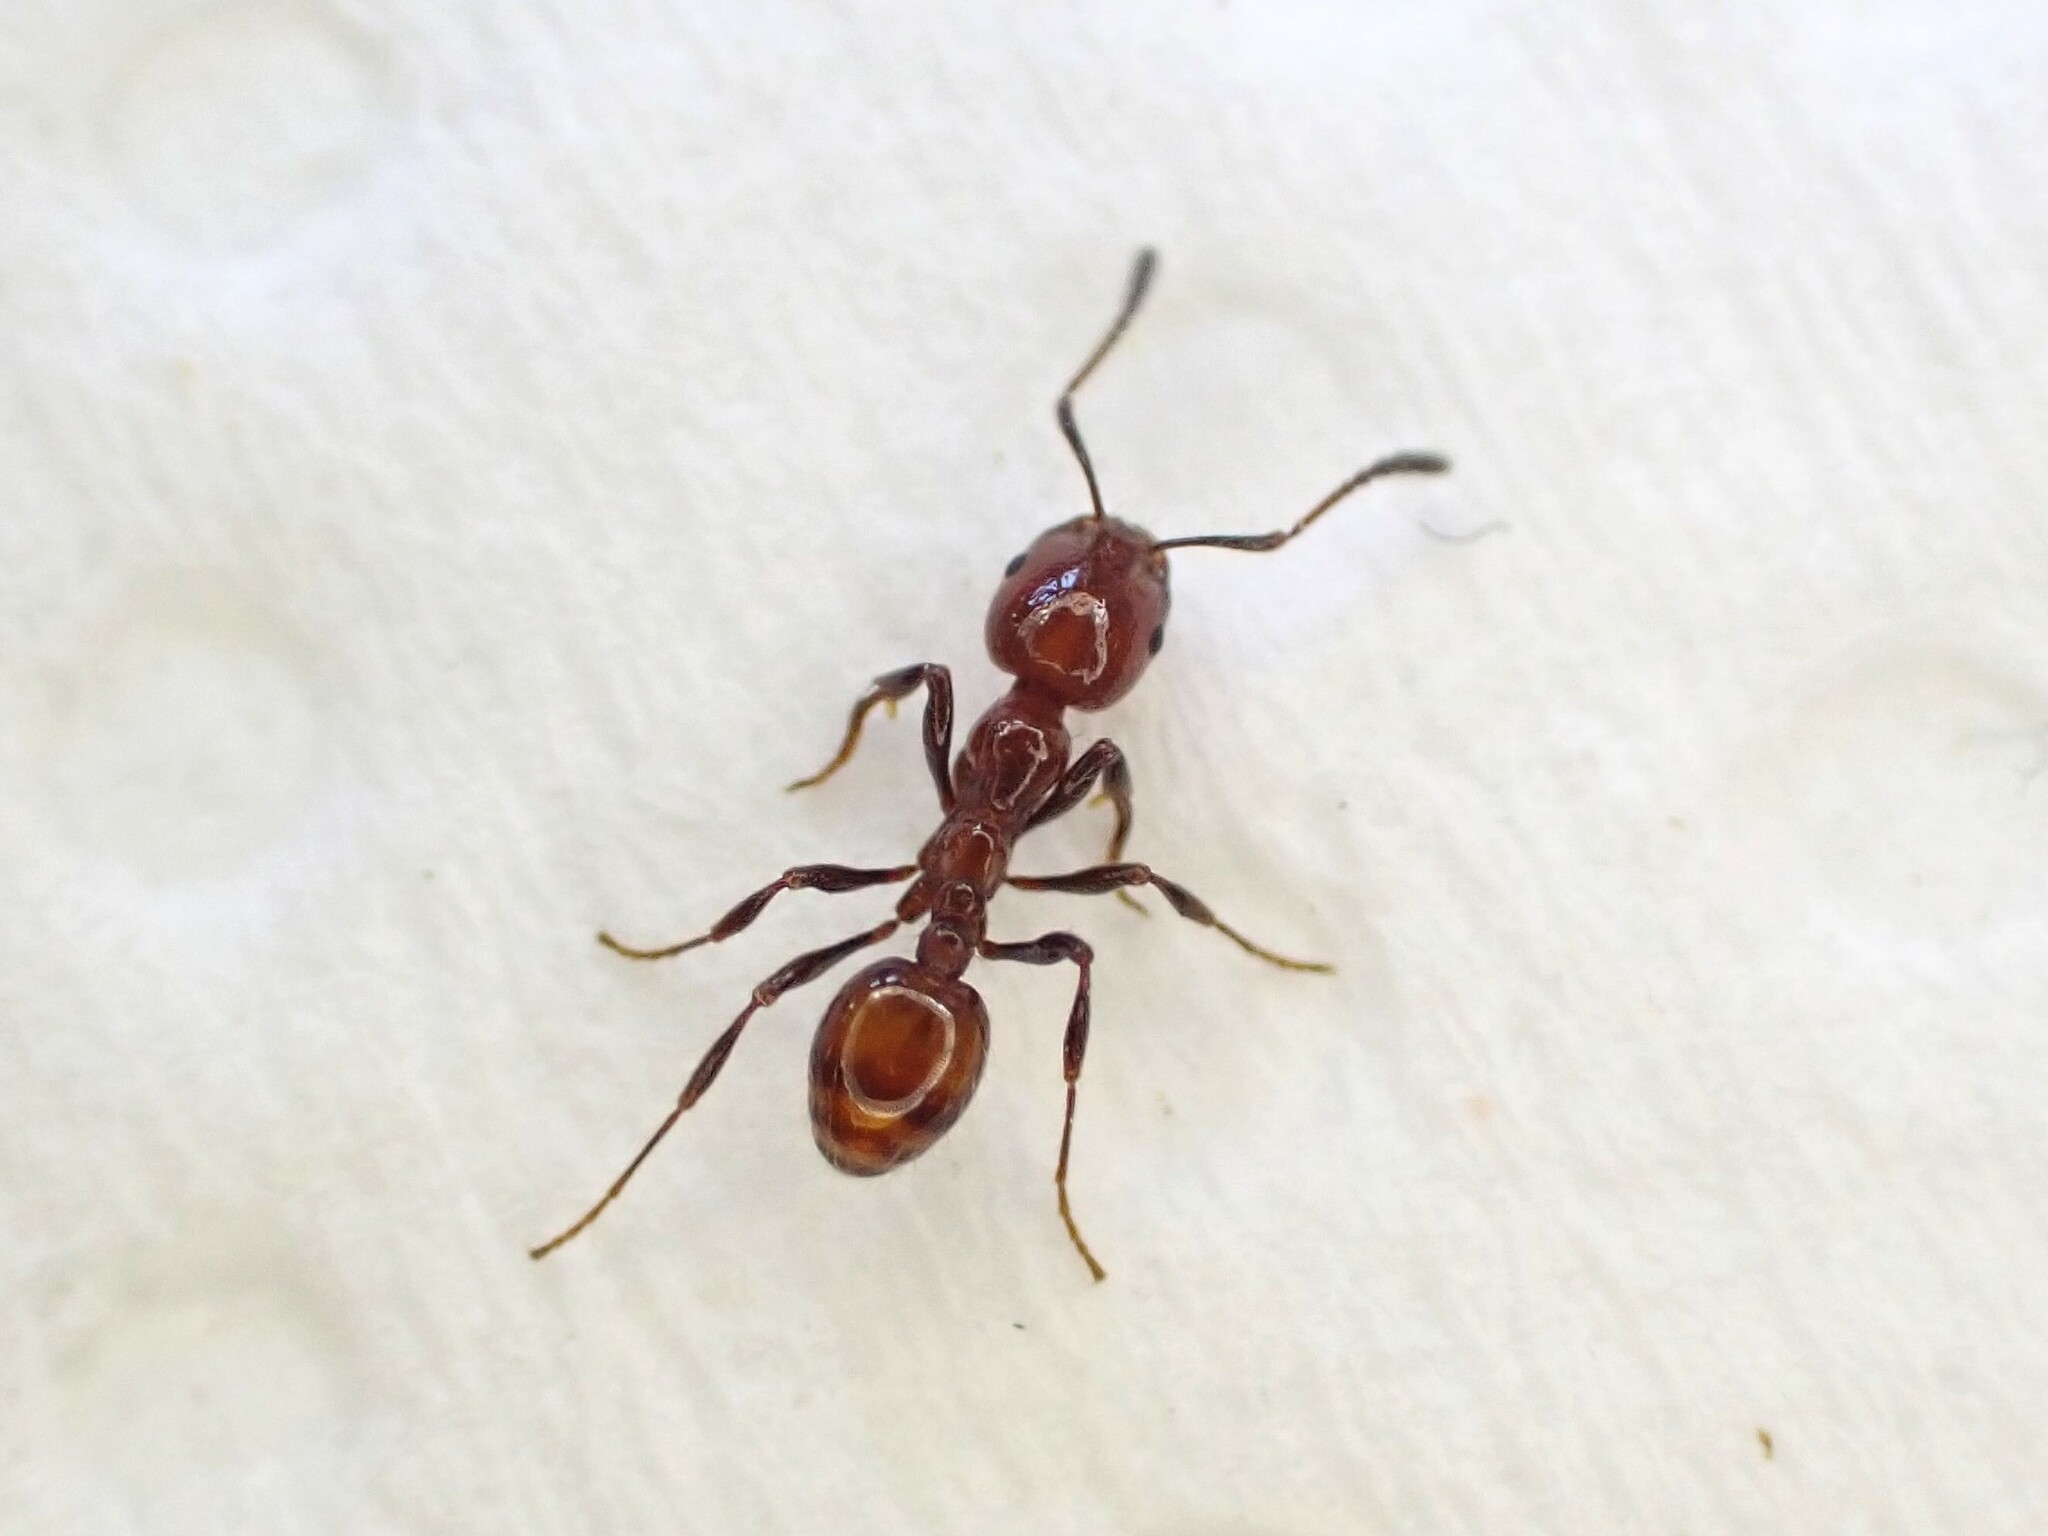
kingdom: Animalia
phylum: Arthropoda
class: Insecta
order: Hymenoptera
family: Formicidae
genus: Monomorium
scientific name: Monomorium antarcticum
